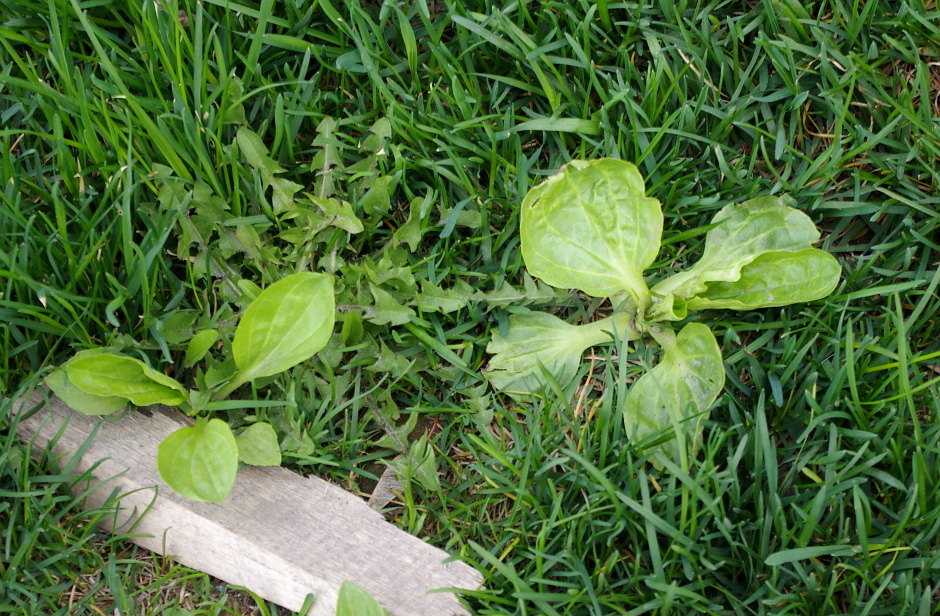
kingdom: Plantae
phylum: Tracheophyta
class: Magnoliopsida
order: Lamiales
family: Plantaginaceae
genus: Plantago
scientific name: Plantago major
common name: Common plantain
